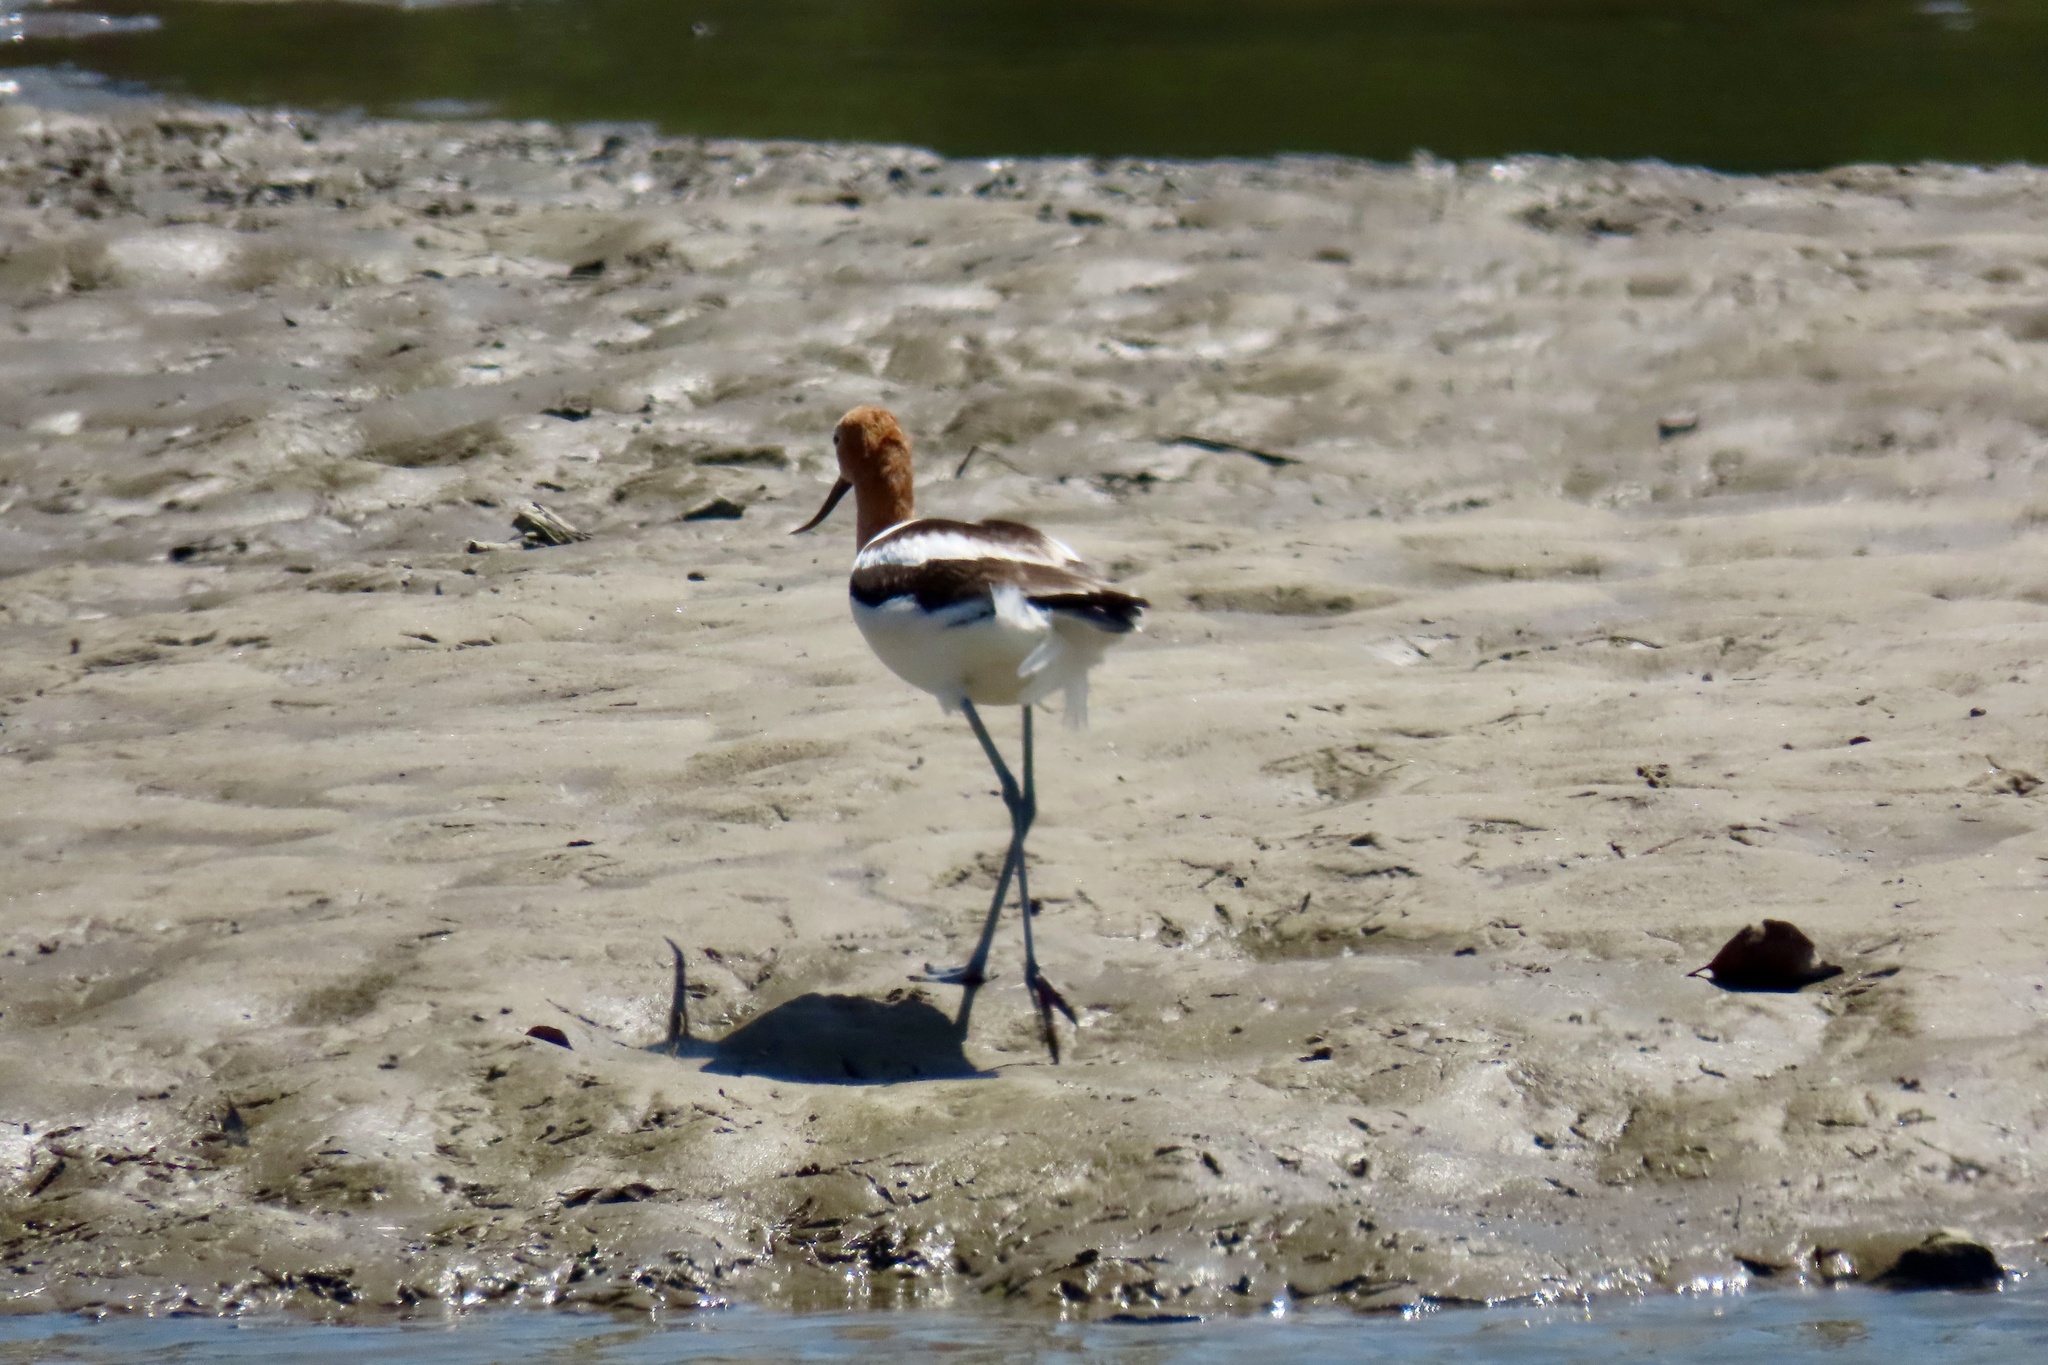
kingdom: Animalia
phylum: Chordata
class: Aves
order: Charadriiformes
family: Recurvirostridae
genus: Recurvirostra
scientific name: Recurvirostra americana
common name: American avocet
